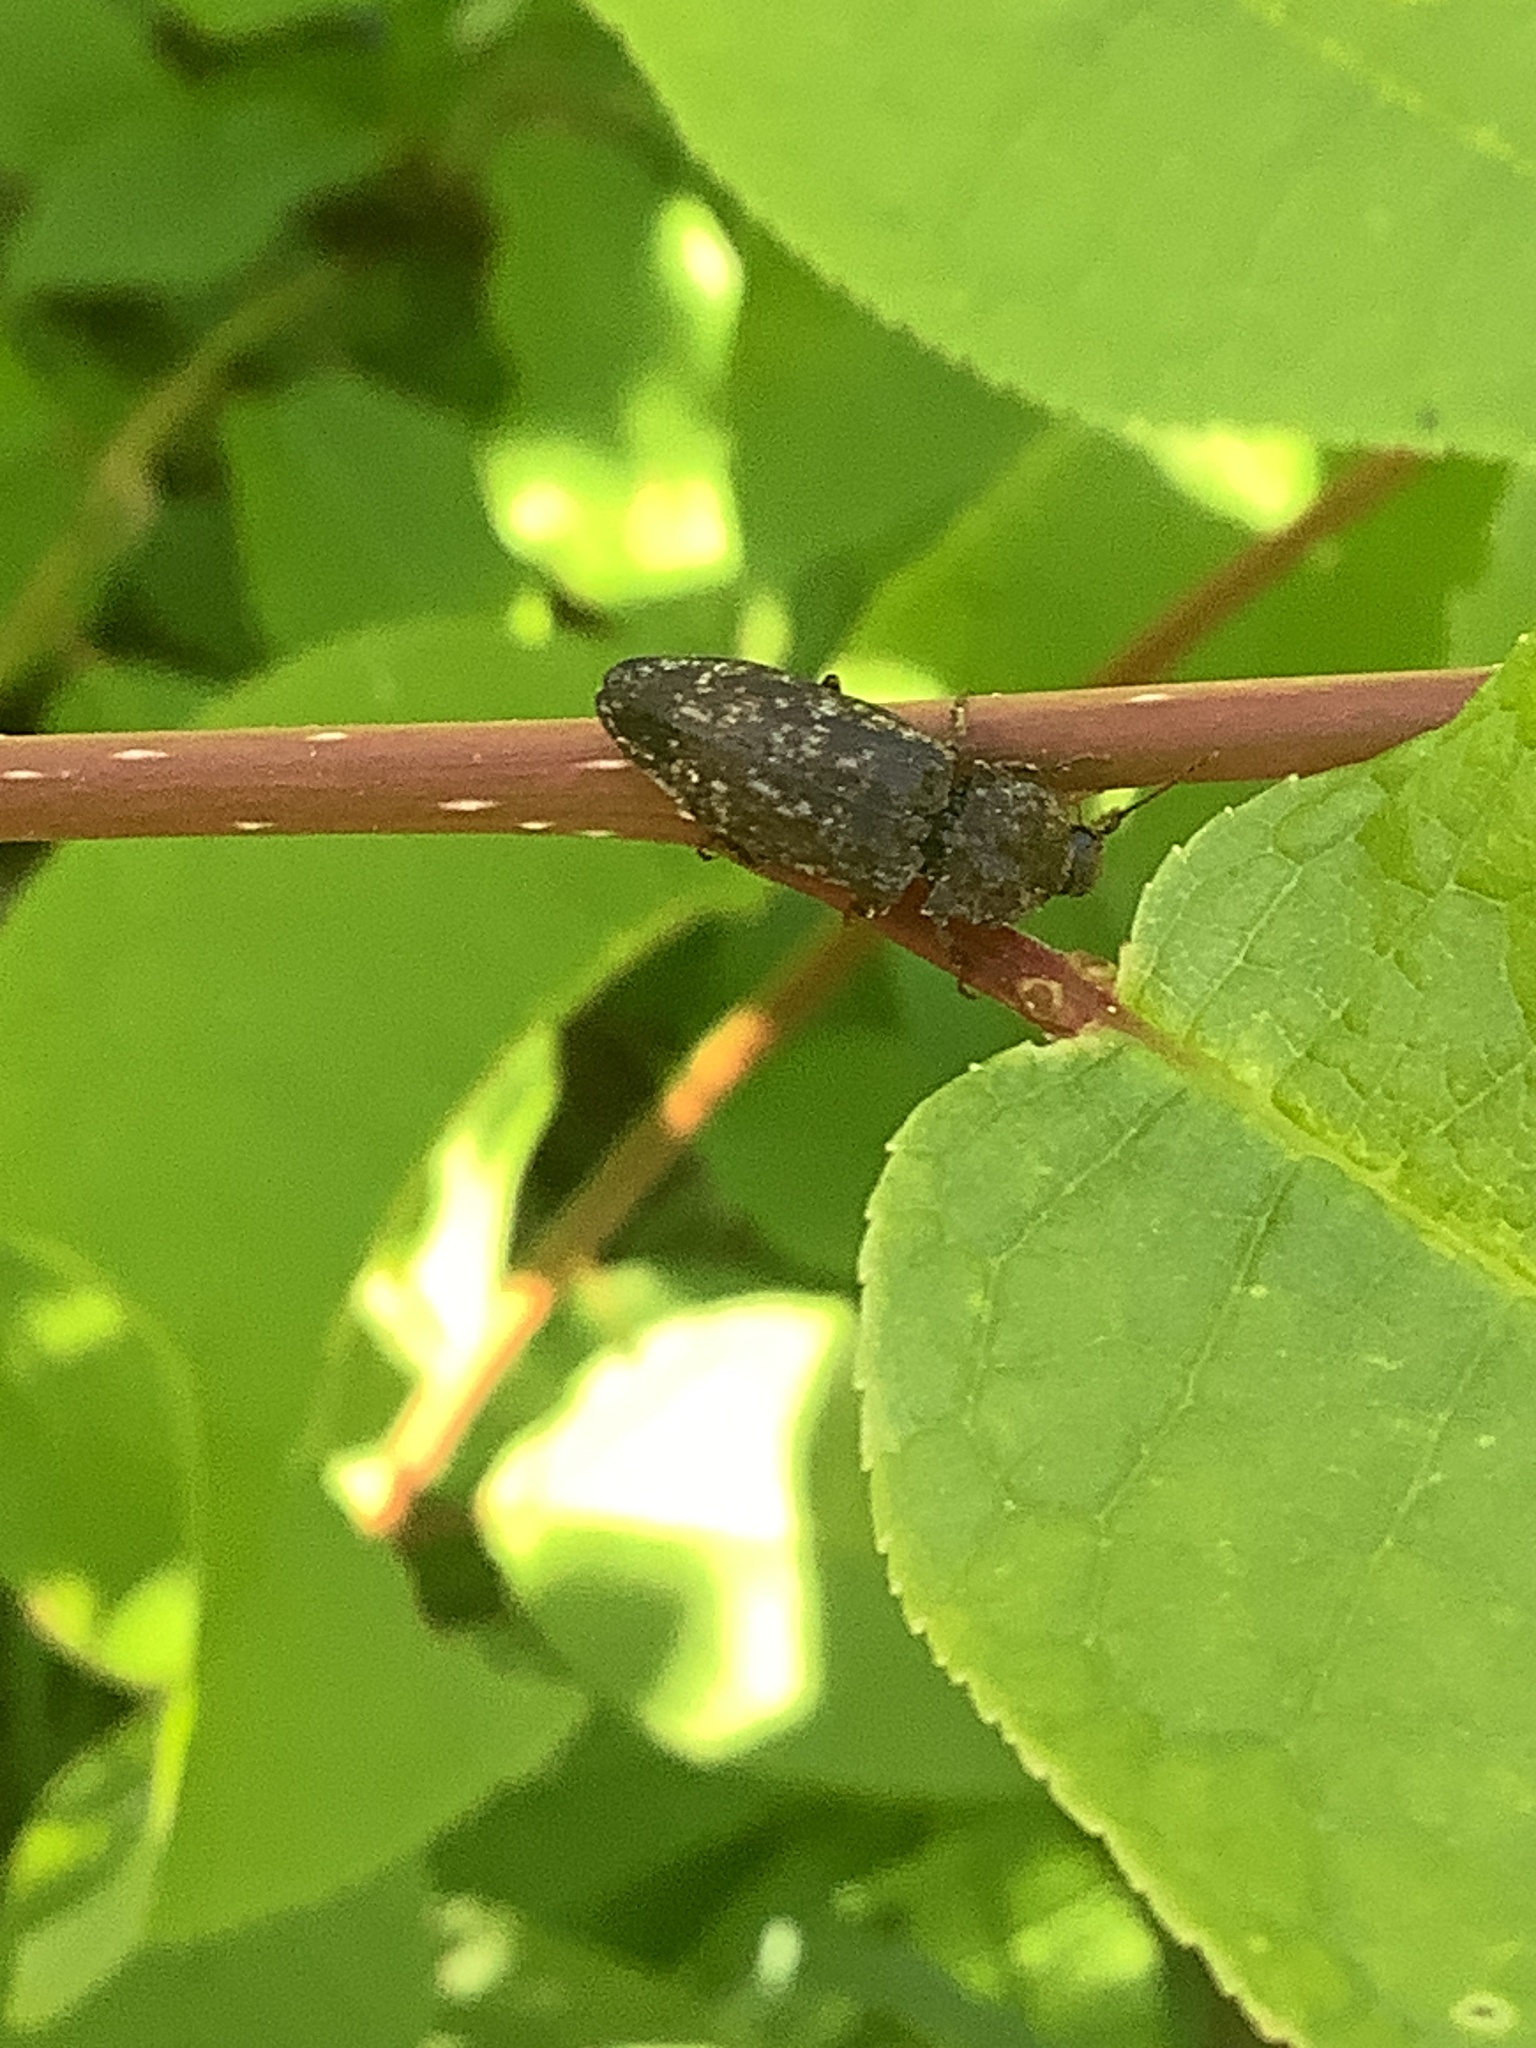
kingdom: Animalia
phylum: Arthropoda
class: Insecta
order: Coleoptera
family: Elateridae
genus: Agrypnus
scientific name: Agrypnus murinus
